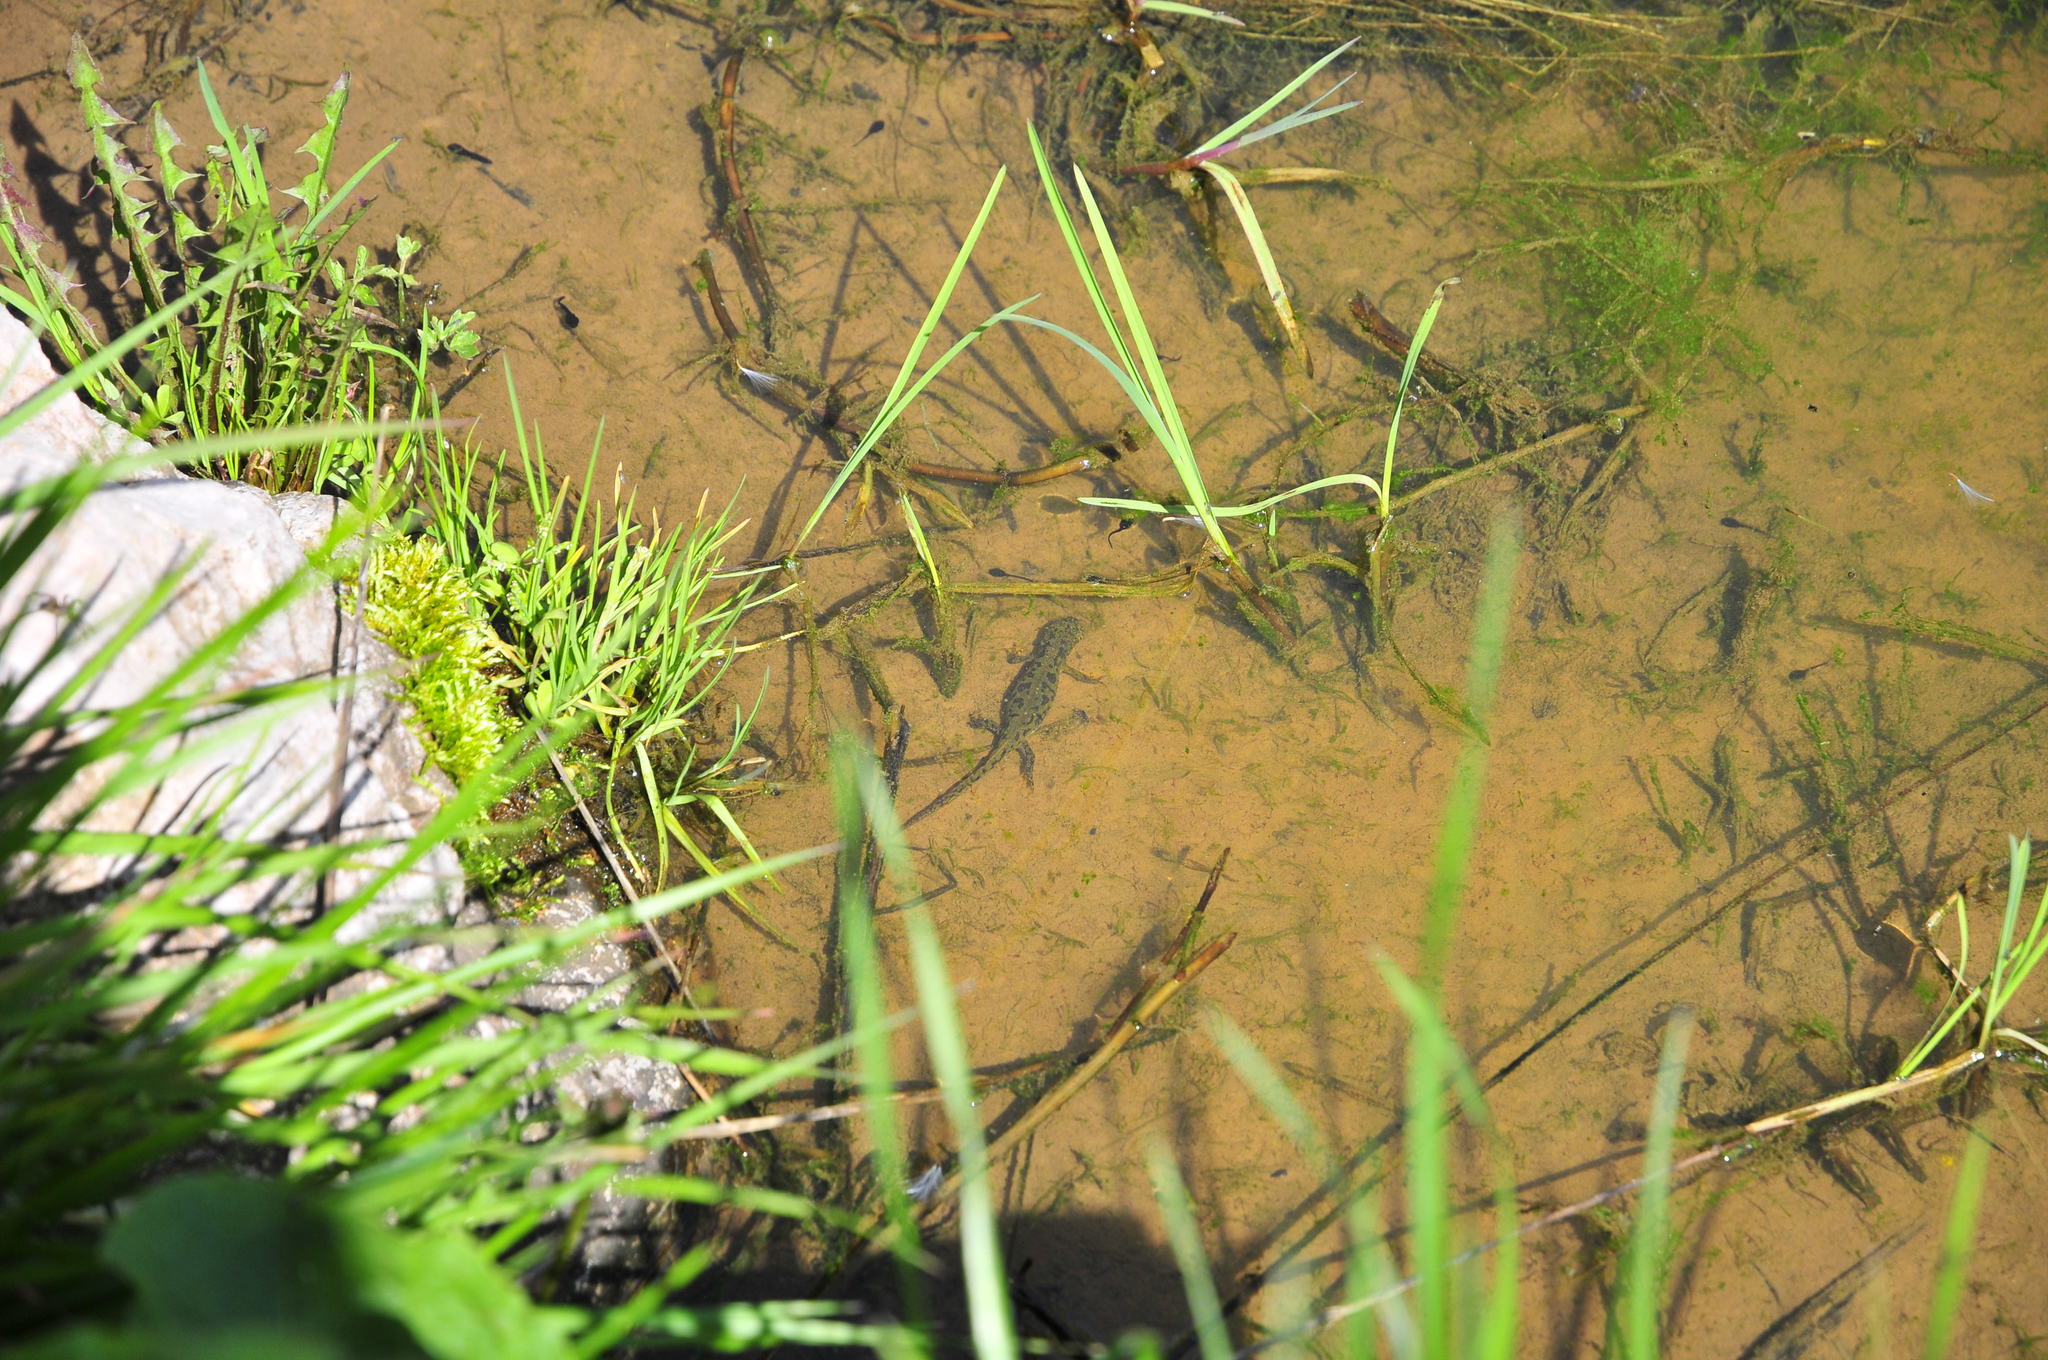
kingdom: Animalia
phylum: Chordata
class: Amphibia
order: Caudata
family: Salamandridae
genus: Ichthyosaura
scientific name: Ichthyosaura alpestris
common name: Alpine newt
